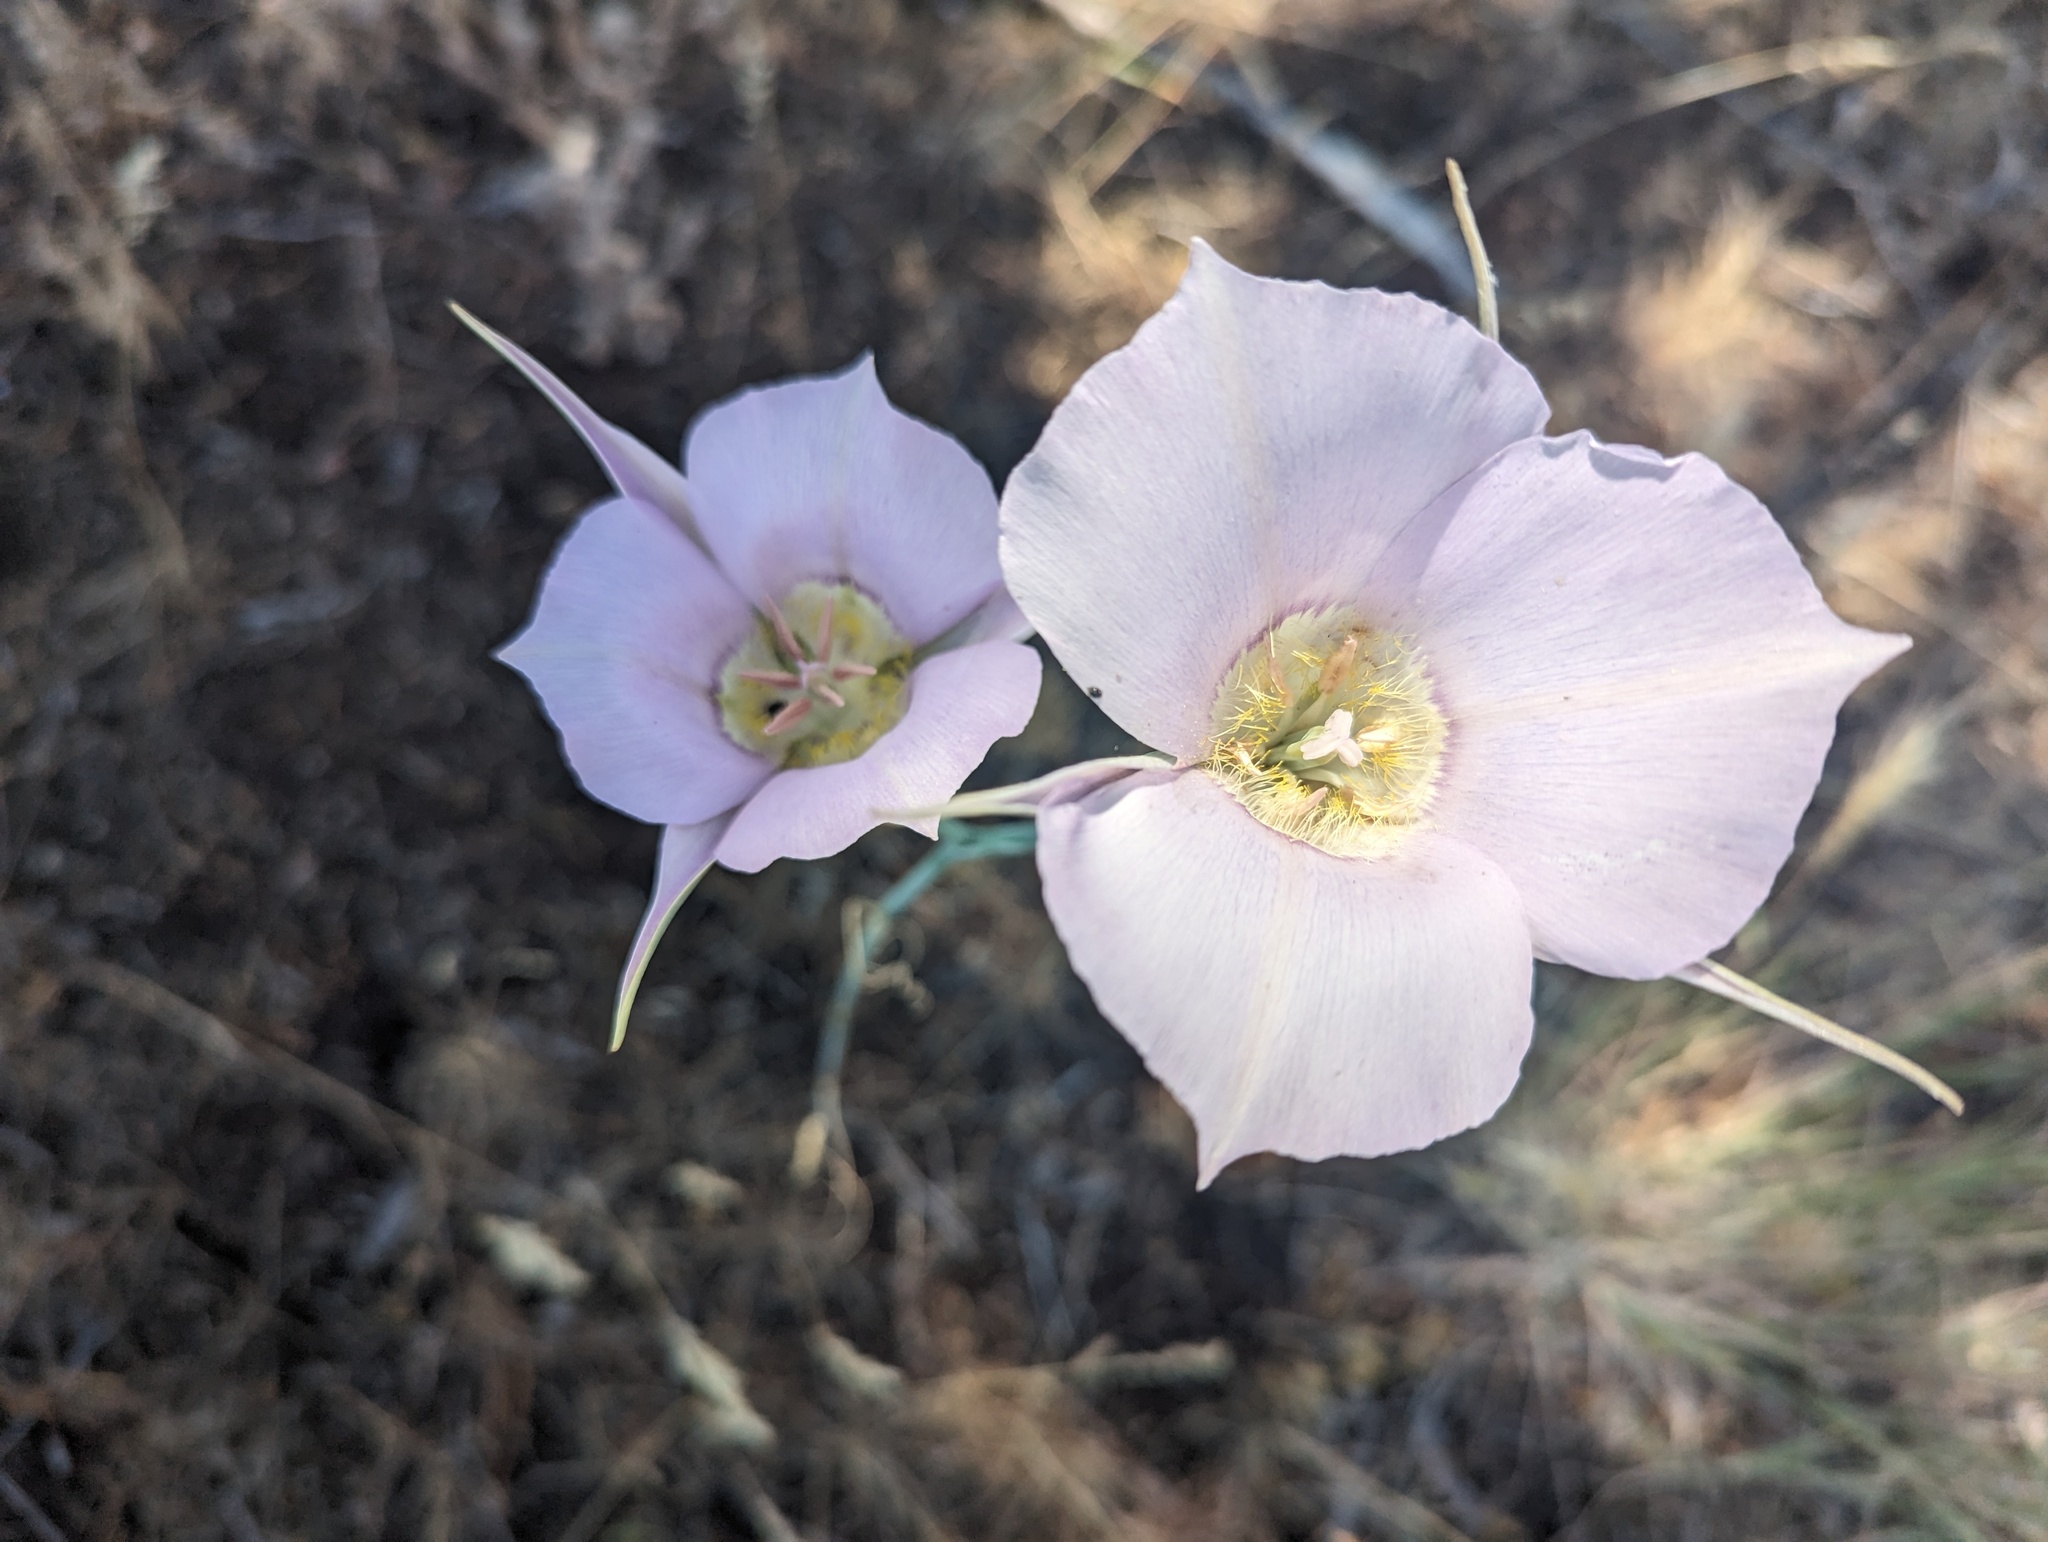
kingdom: Plantae
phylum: Tracheophyta
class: Liliopsida
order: Liliales
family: Liliaceae
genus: Calochortus
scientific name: Calochortus macrocarpus
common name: Green-band mariposa lily
